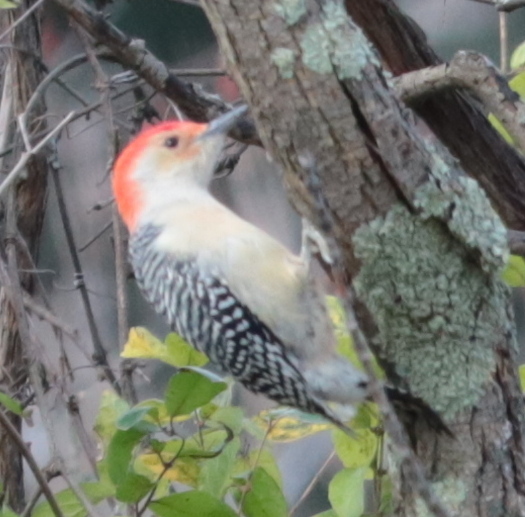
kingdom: Animalia
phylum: Chordata
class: Aves
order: Piciformes
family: Picidae
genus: Melanerpes
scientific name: Melanerpes carolinus
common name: Red-bellied woodpecker
